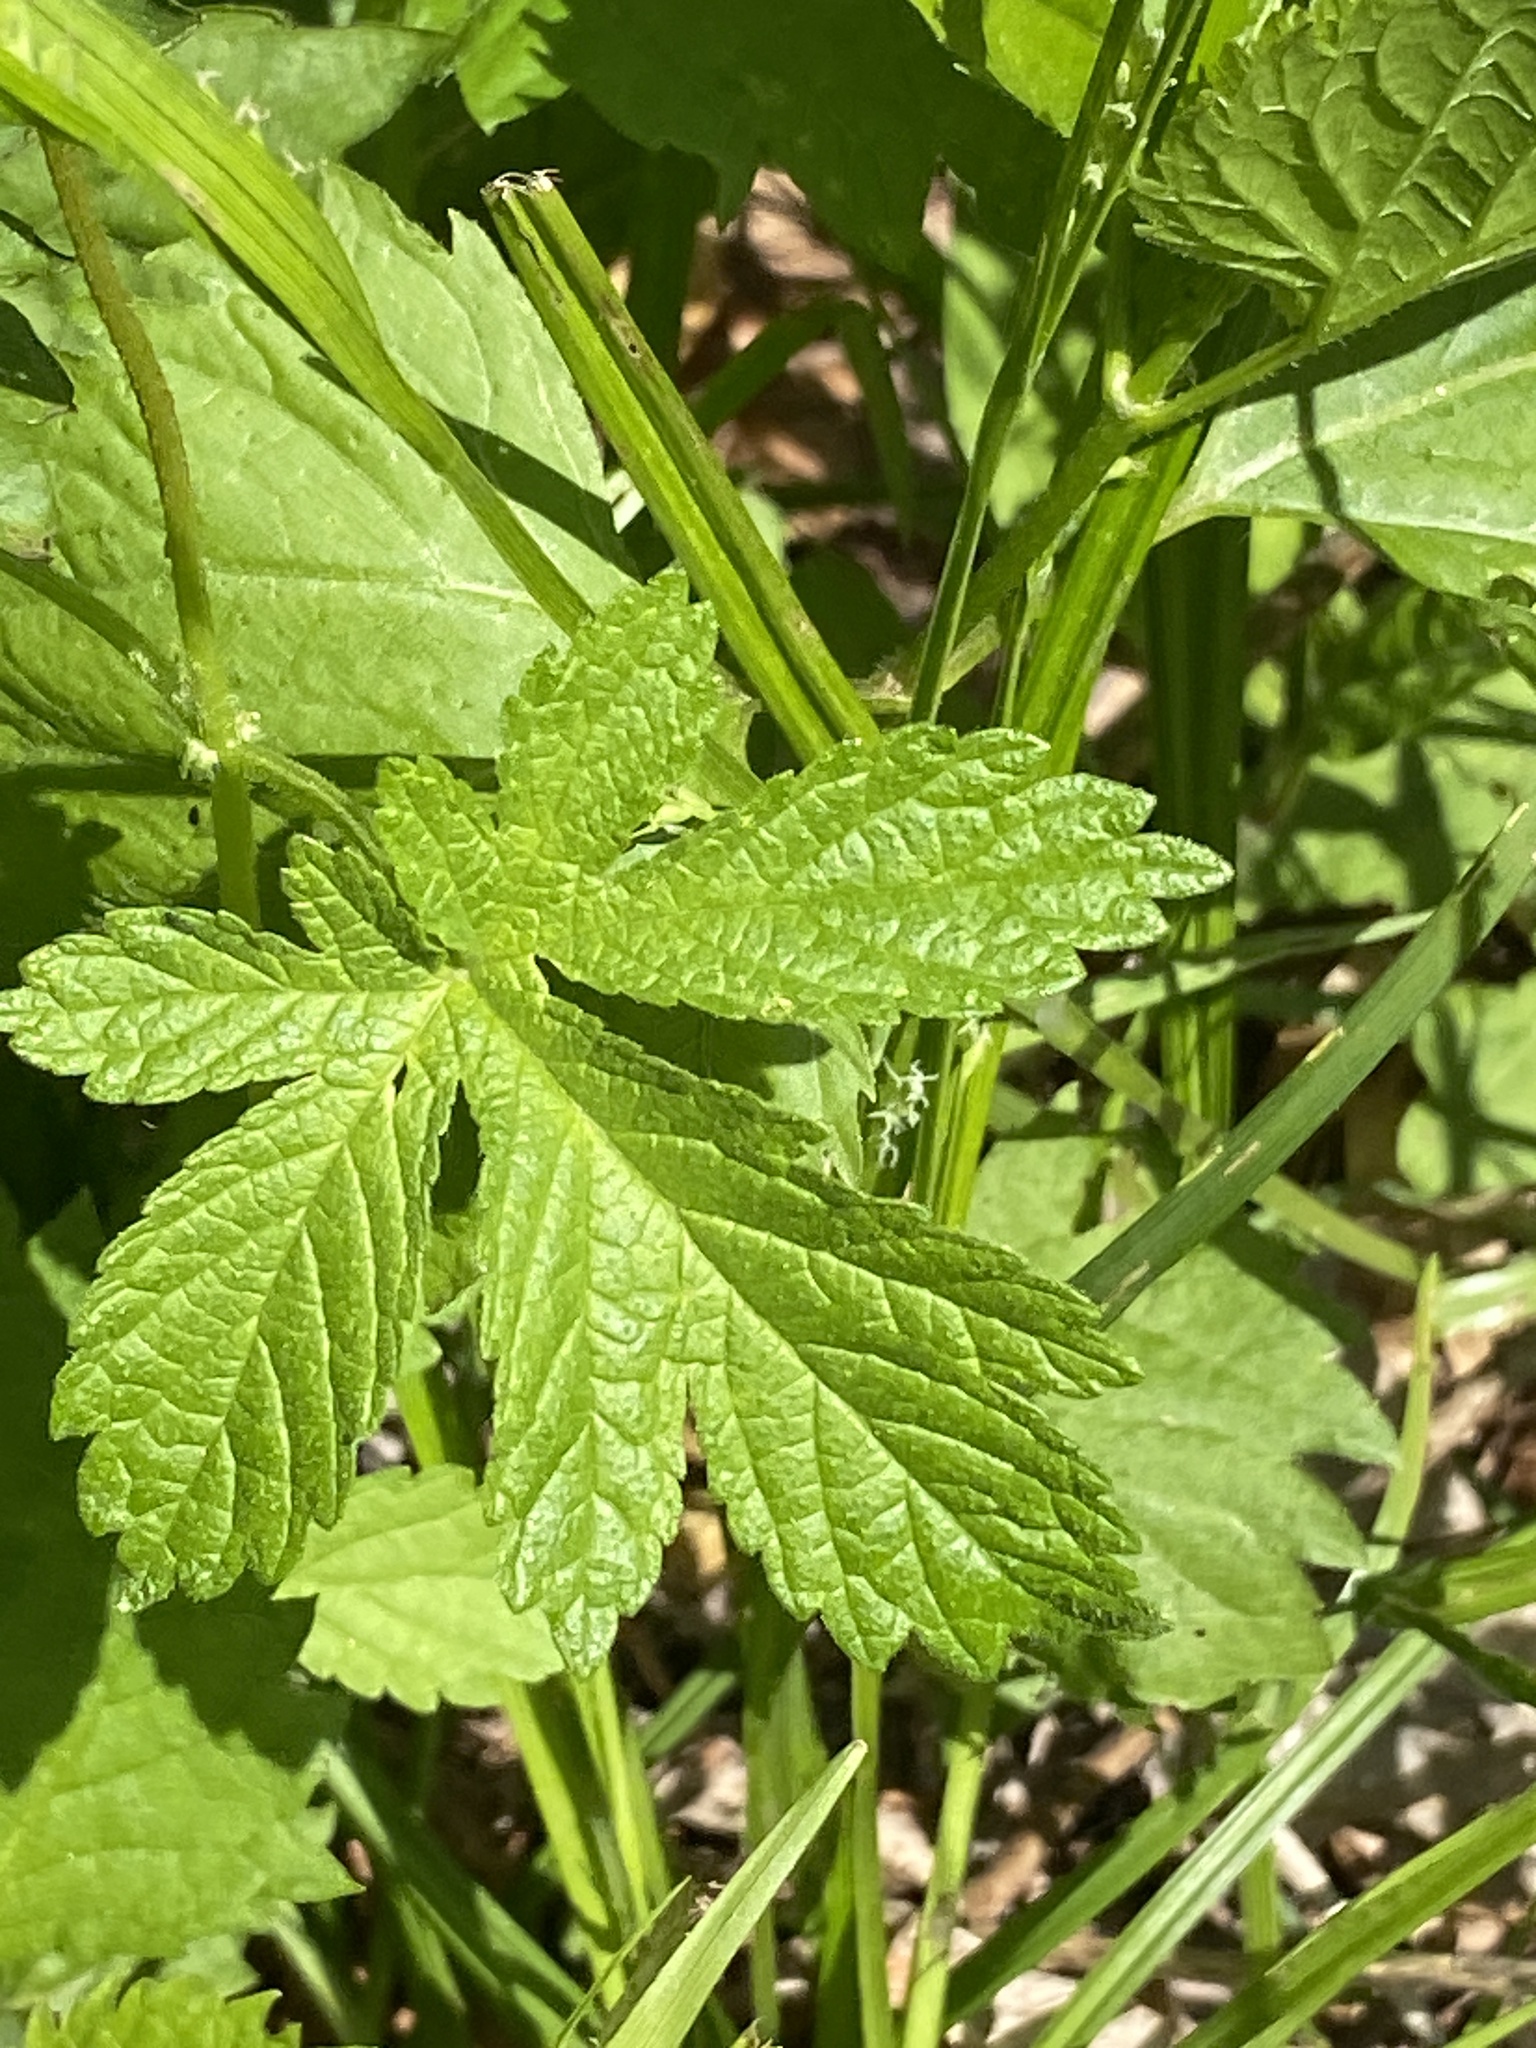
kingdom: Plantae
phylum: Tracheophyta
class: Magnoliopsida
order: Rosales
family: Cannabaceae
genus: Humulus
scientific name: Humulus scandens
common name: Japanese hop
